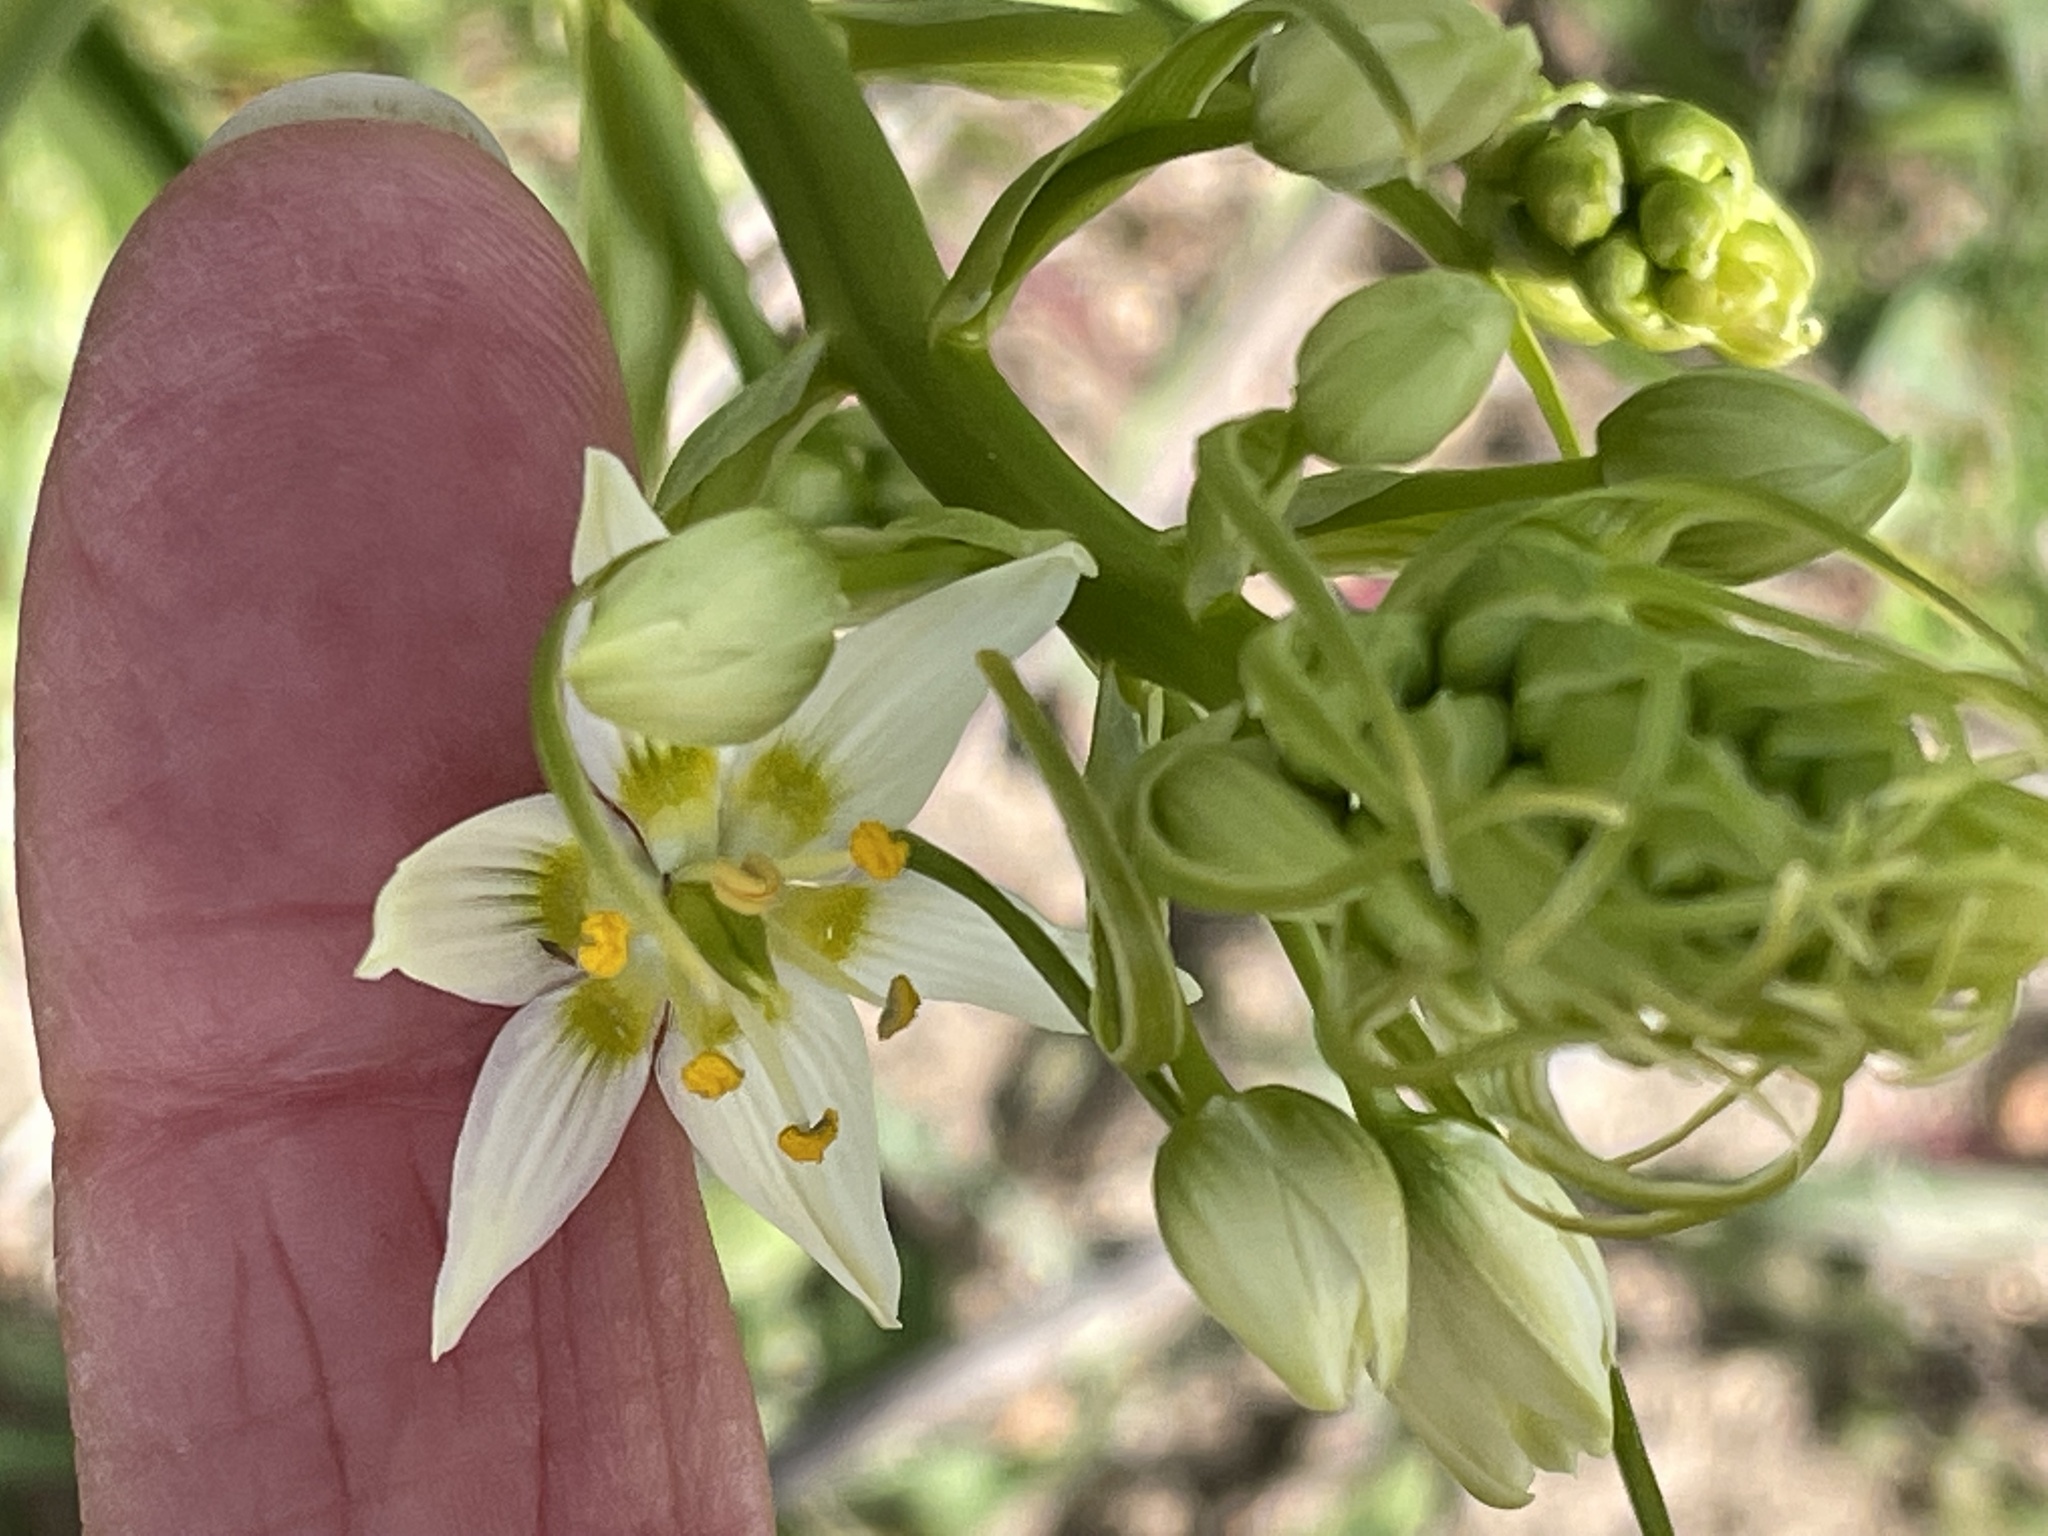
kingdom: Plantae
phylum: Tracheophyta
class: Liliopsida
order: Liliales
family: Melanthiaceae
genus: Toxicoscordion
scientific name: Toxicoscordion fremontii
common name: Fremont's death camas
